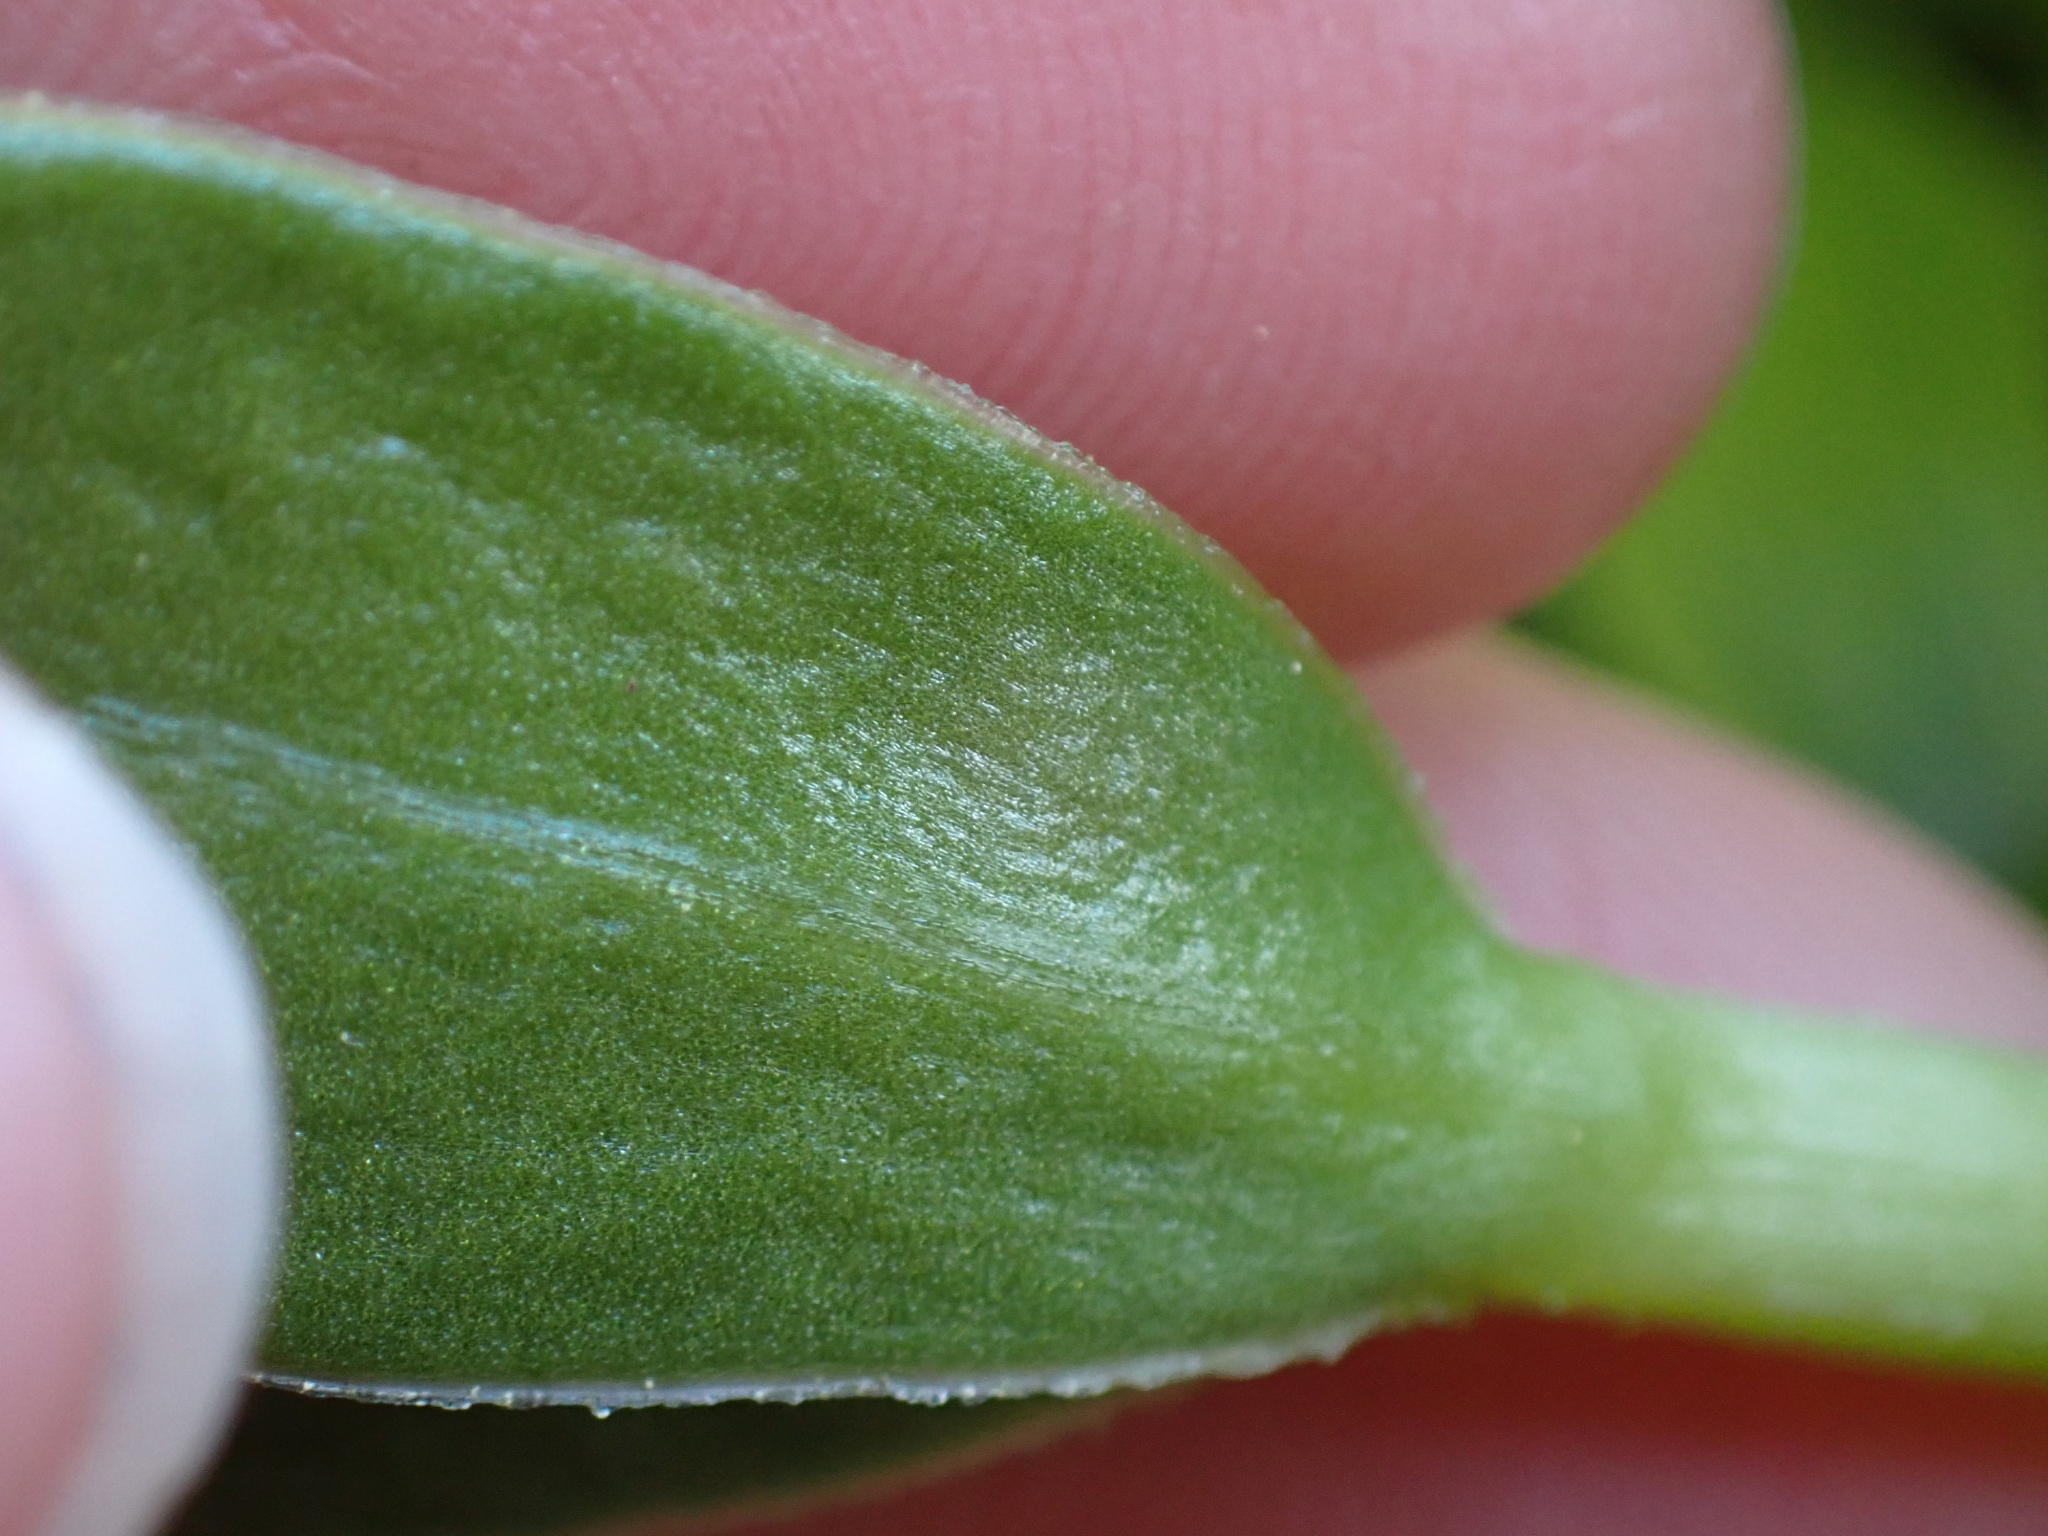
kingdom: Plantae
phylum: Tracheophyta
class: Magnoliopsida
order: Caryophyllales
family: Caryophyllaceae
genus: Honckenya
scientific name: Honckenya peploides
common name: Sea sandwort
